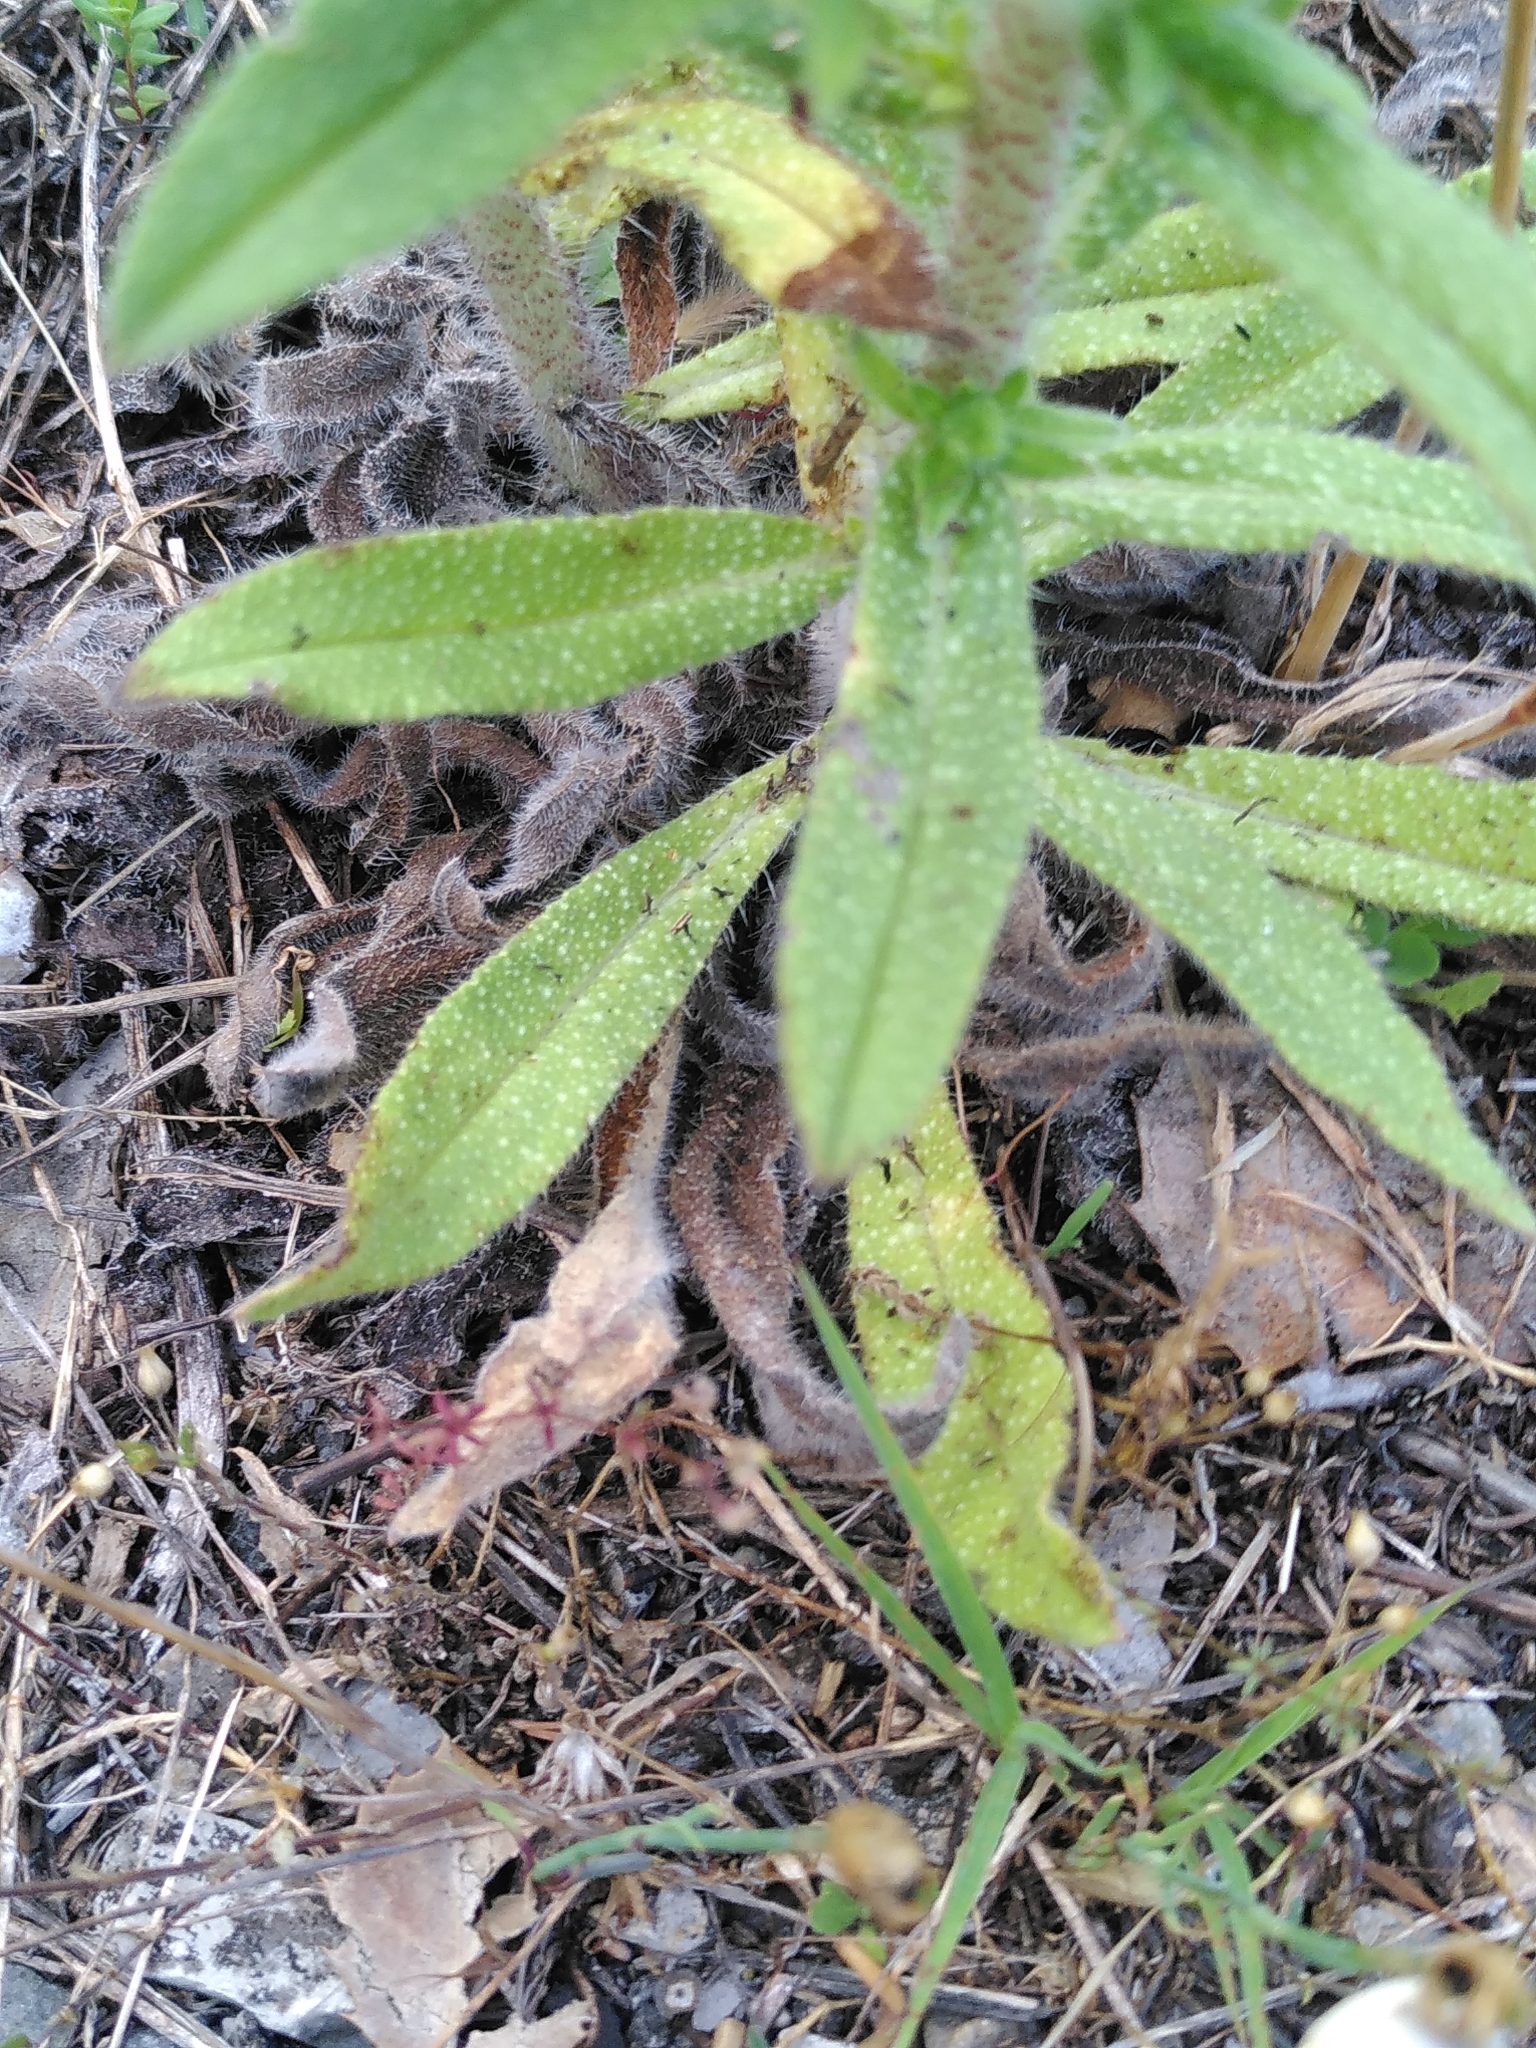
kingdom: Plantae
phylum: Tracheophyta
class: Magnoliopsida
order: Boraginales
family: Boraginaceae
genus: Echium
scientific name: Echium vulgare
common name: Common viper's bugloss
